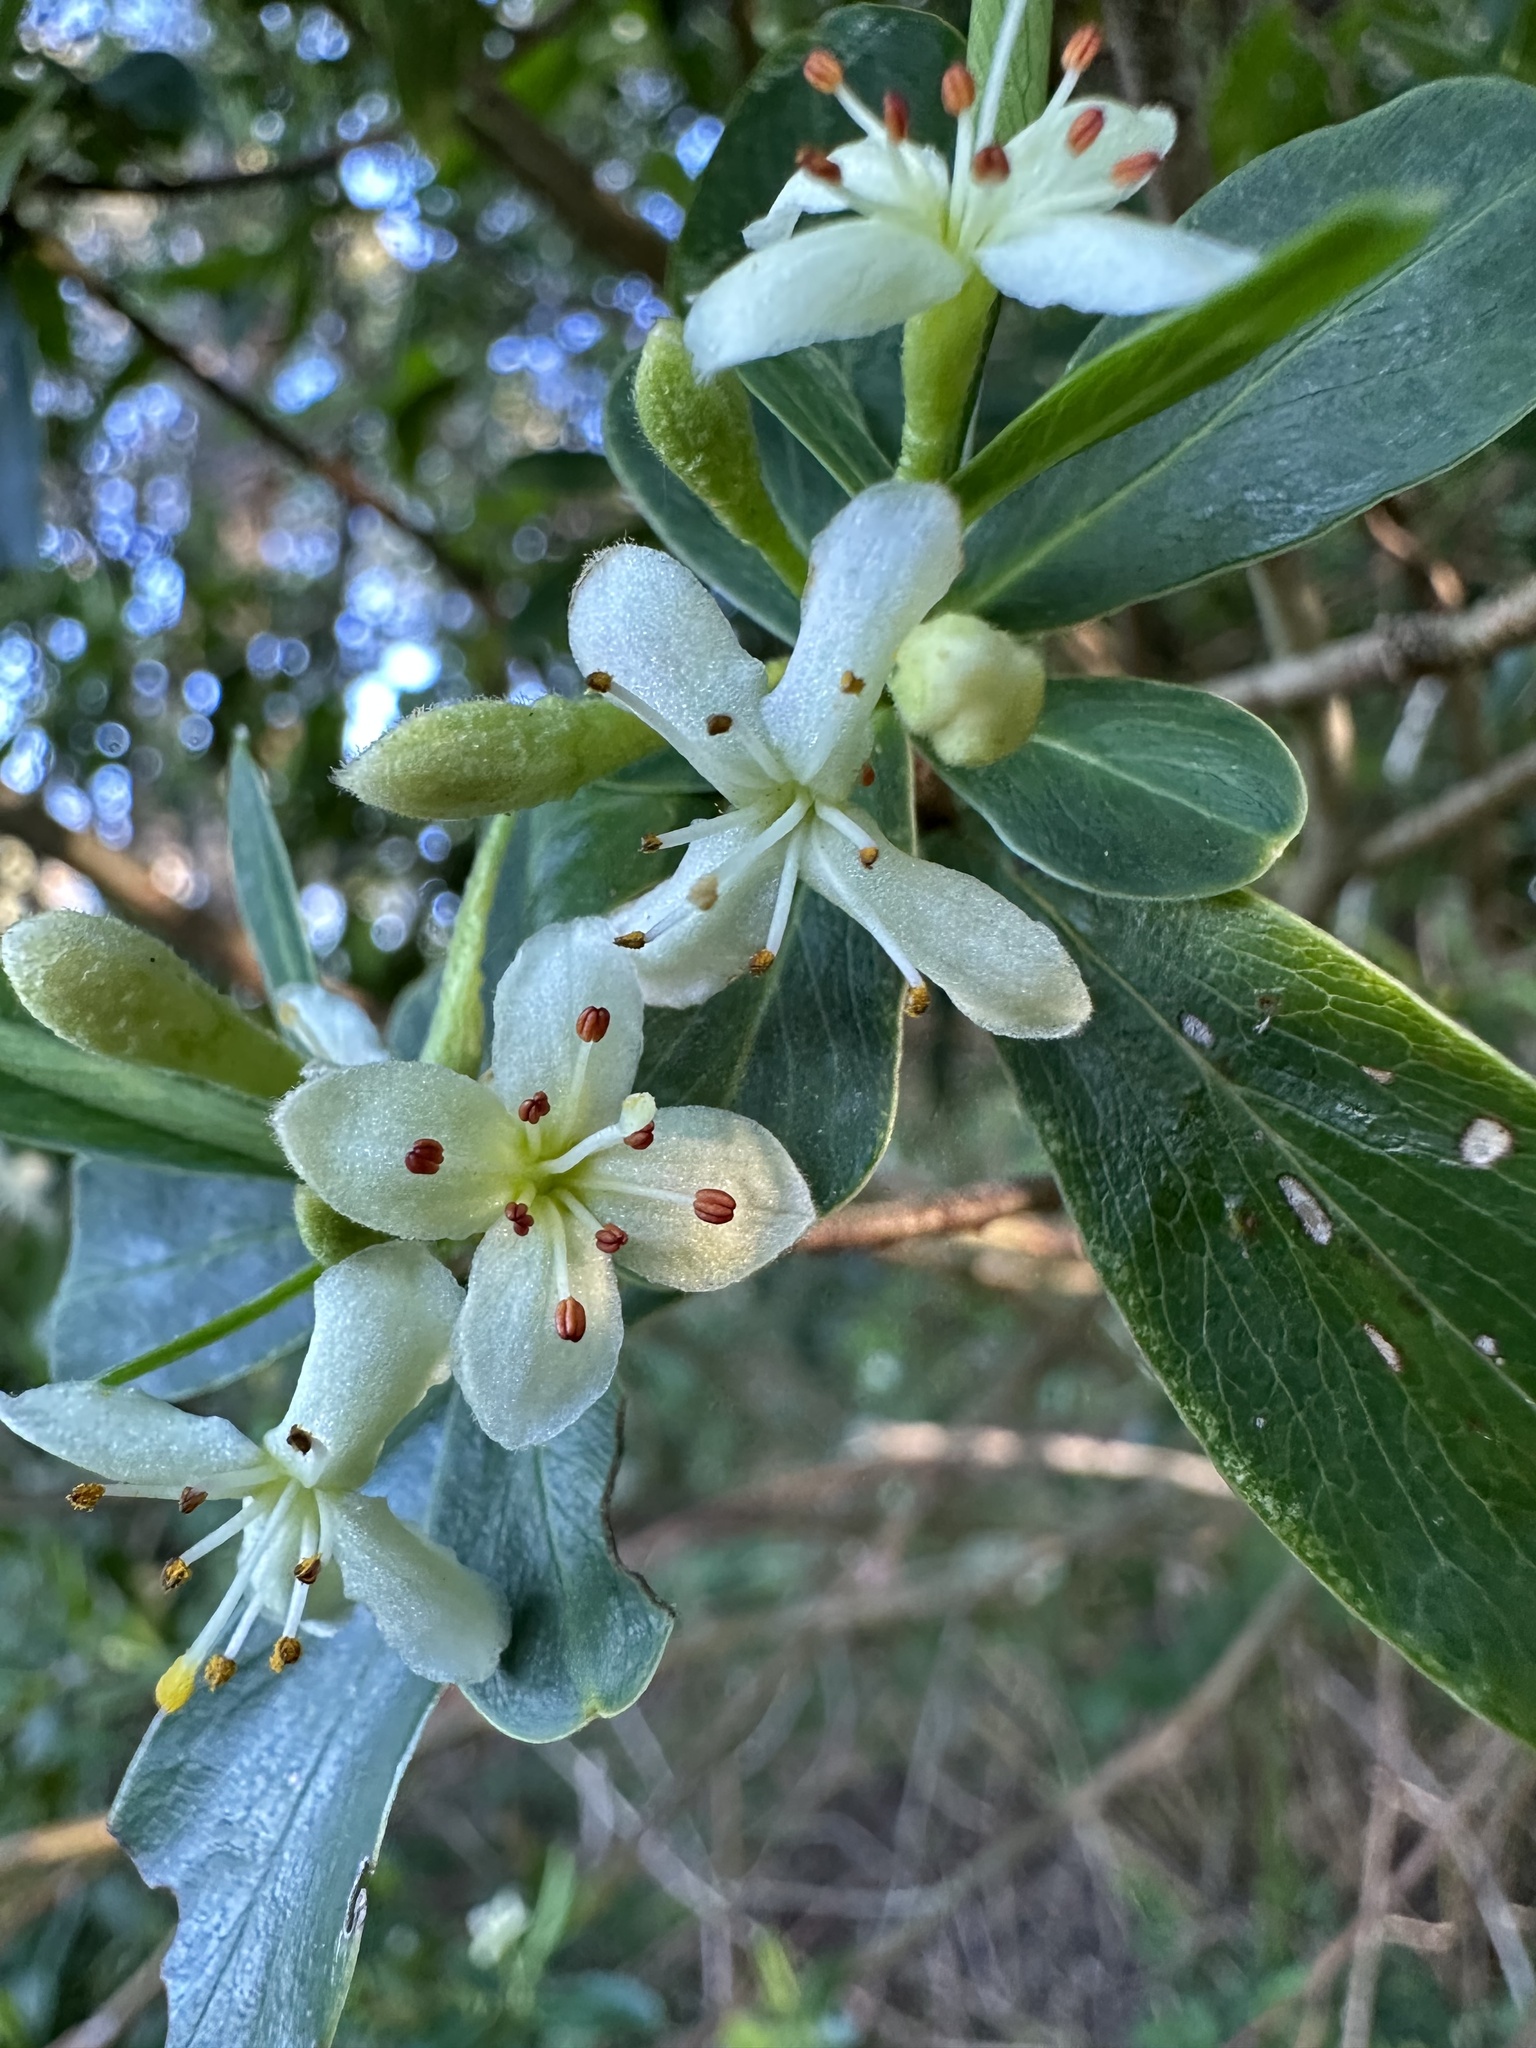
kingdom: Plantae
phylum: Tracheophyta
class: Magnoliopsida
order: Malvales
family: Thymelaeaceae
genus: Ovidia
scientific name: Ovidia andina
